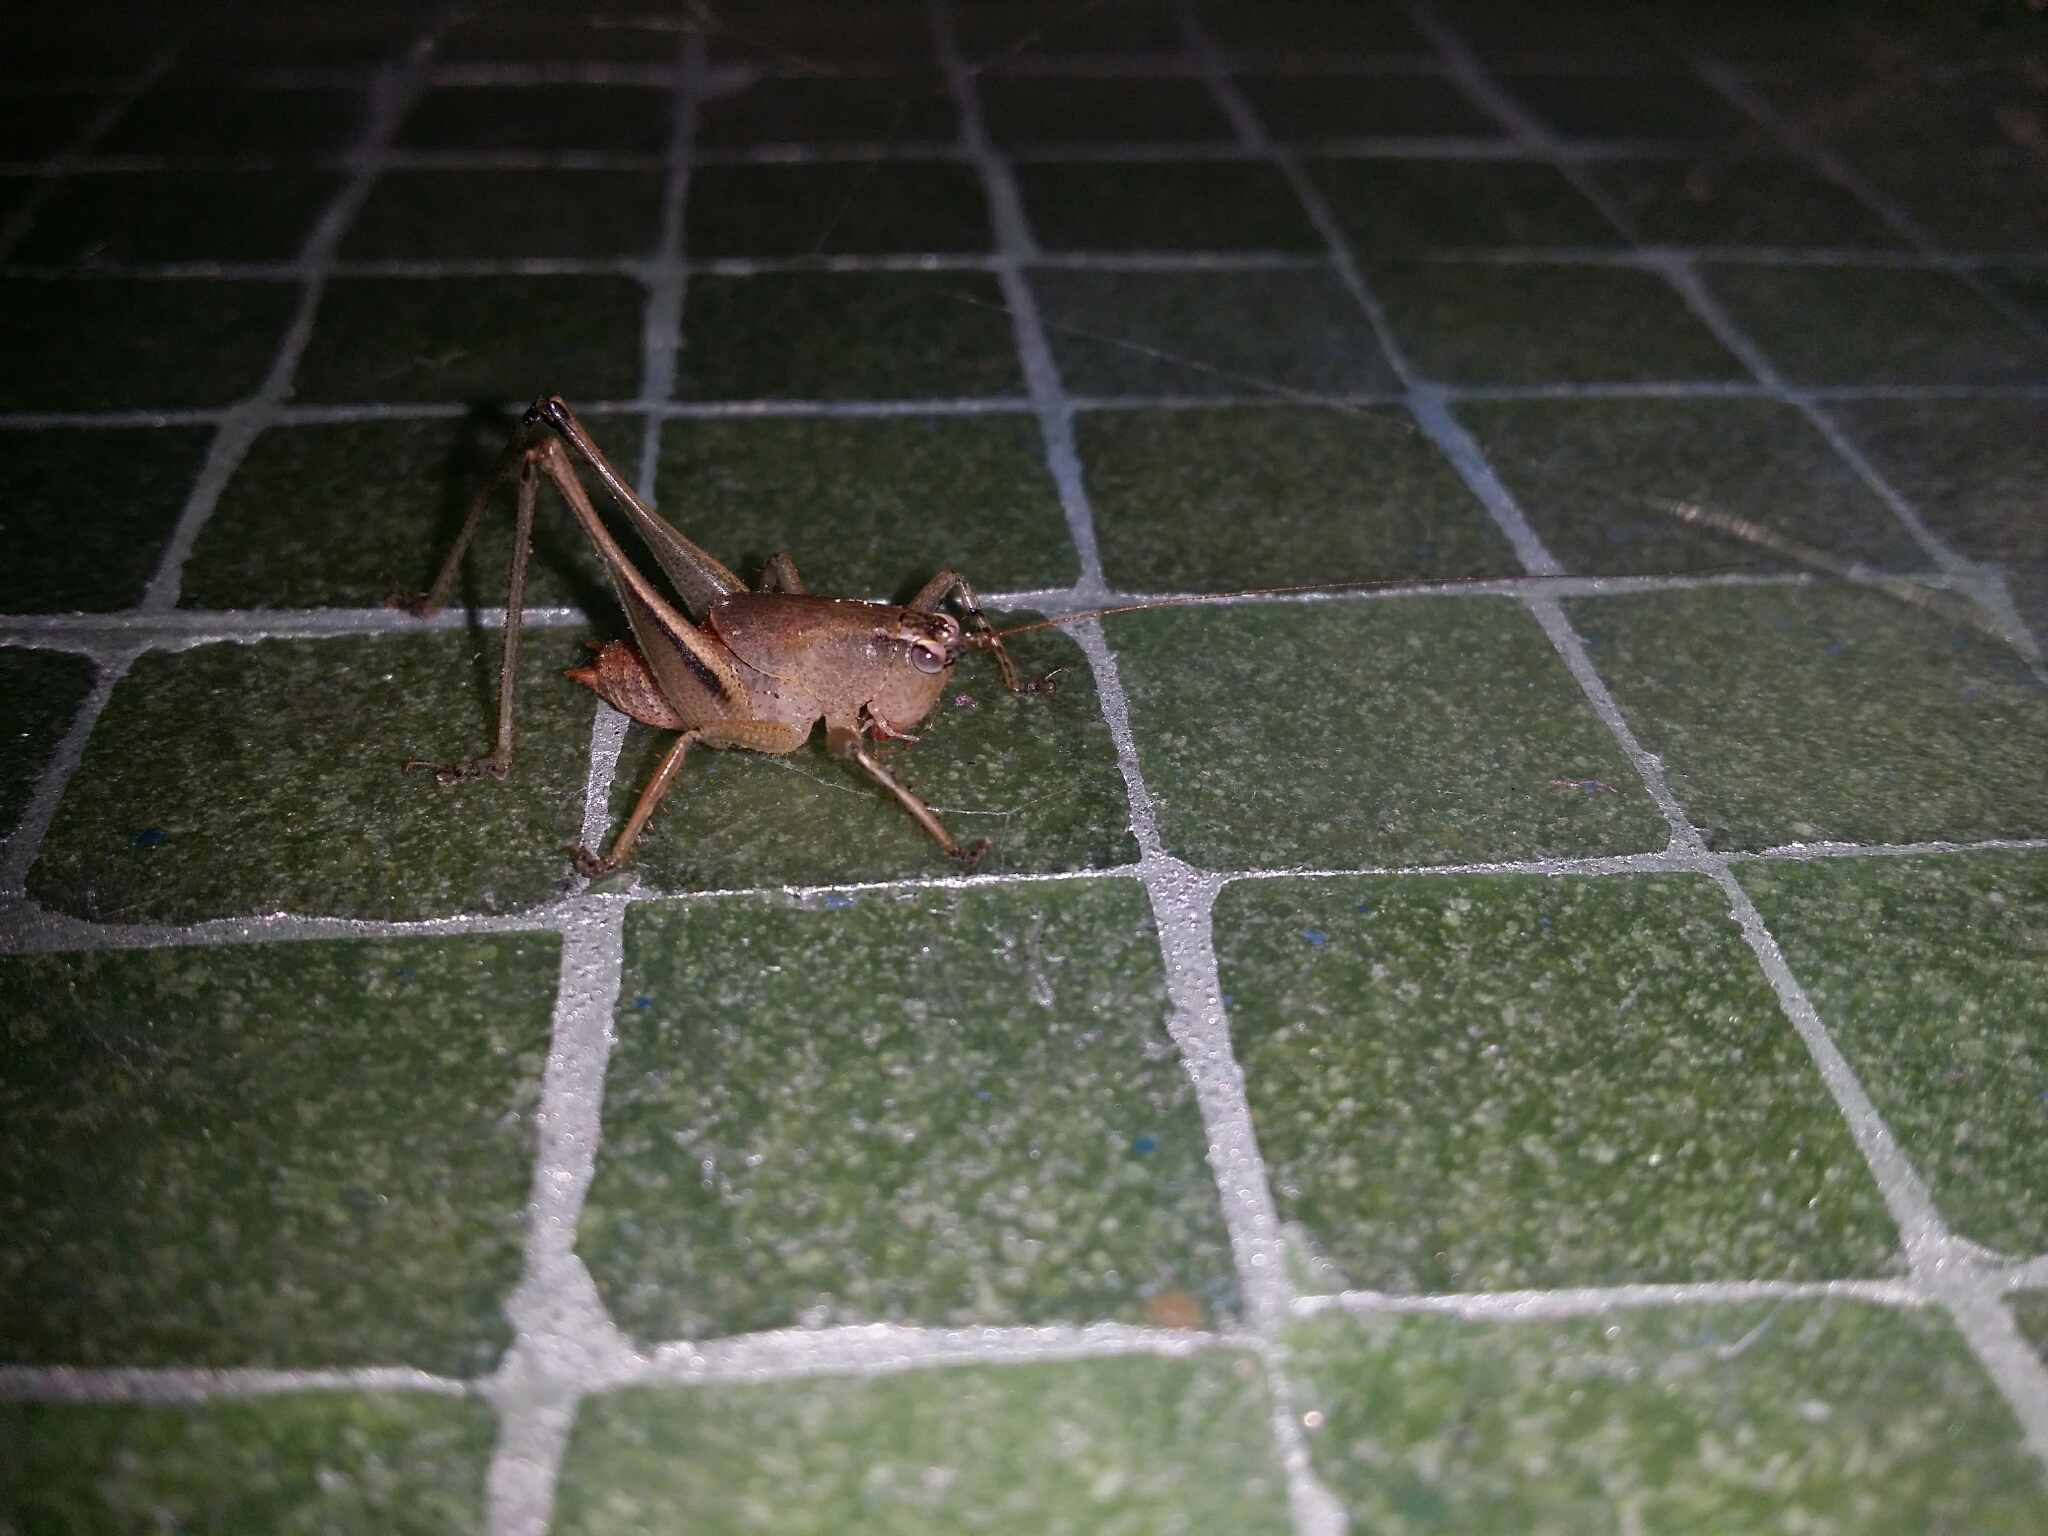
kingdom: Animalia
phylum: Arthropoda
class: Insecta
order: Orthoptera
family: Tettigoniidae
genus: Requena
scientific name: Requena verticalis
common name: Common western requena
